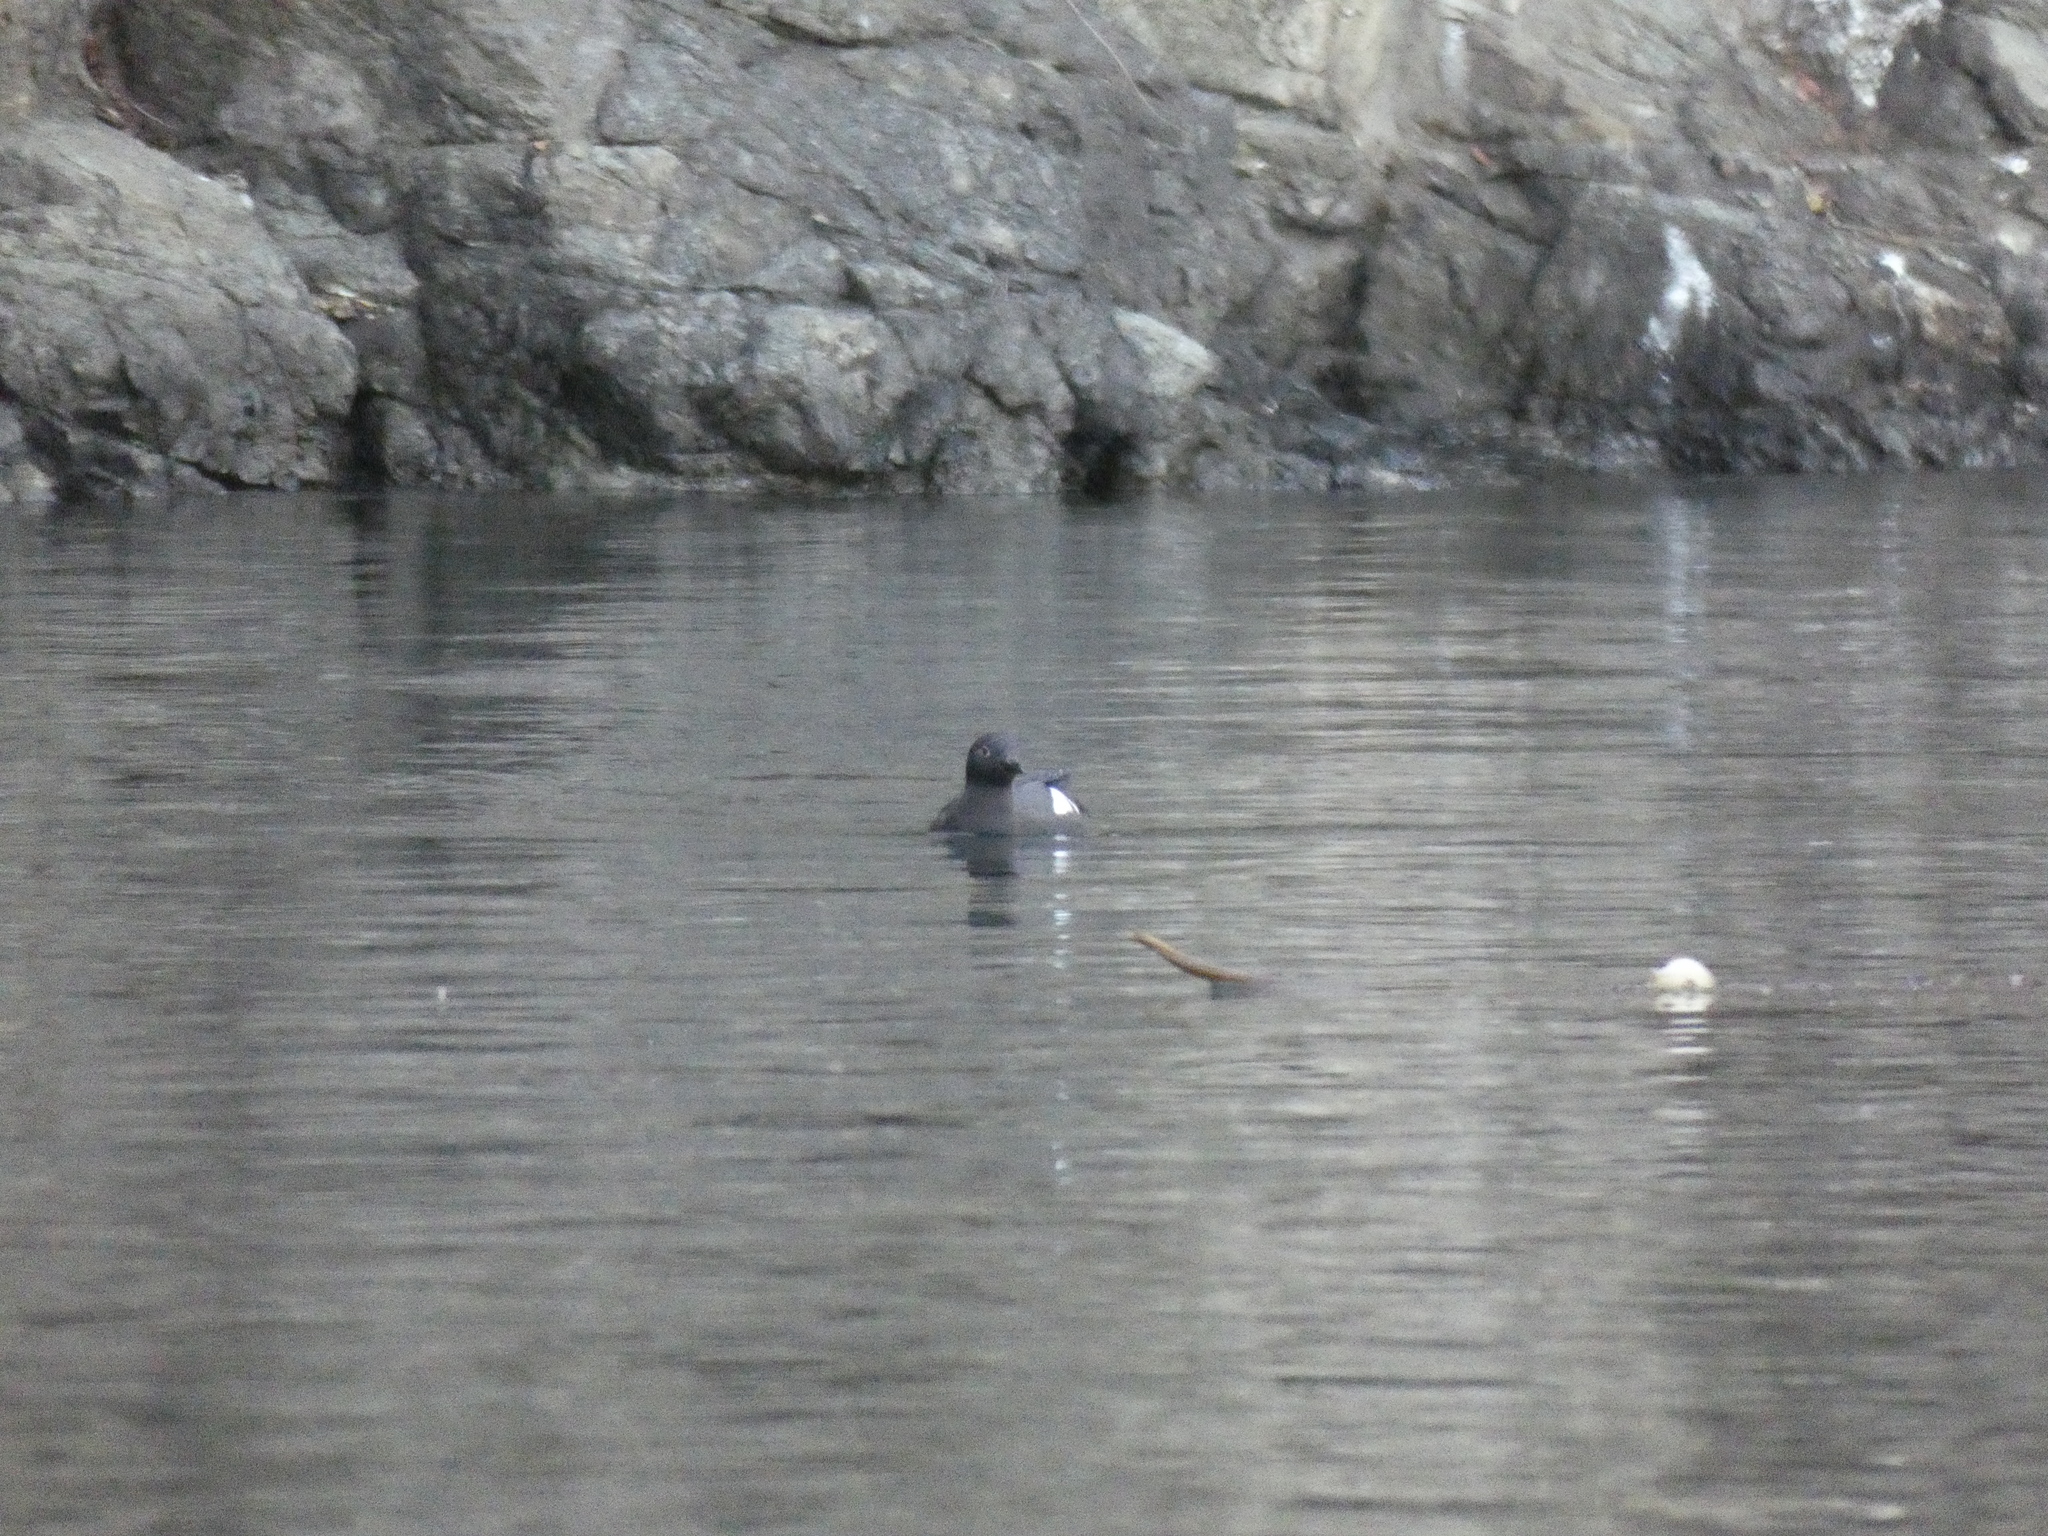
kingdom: Animalia
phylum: Chordata
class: Aves
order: Charadriiformes
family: Alcidae
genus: Cepphus
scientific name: Cepphus columba
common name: Pigeon guillemot
